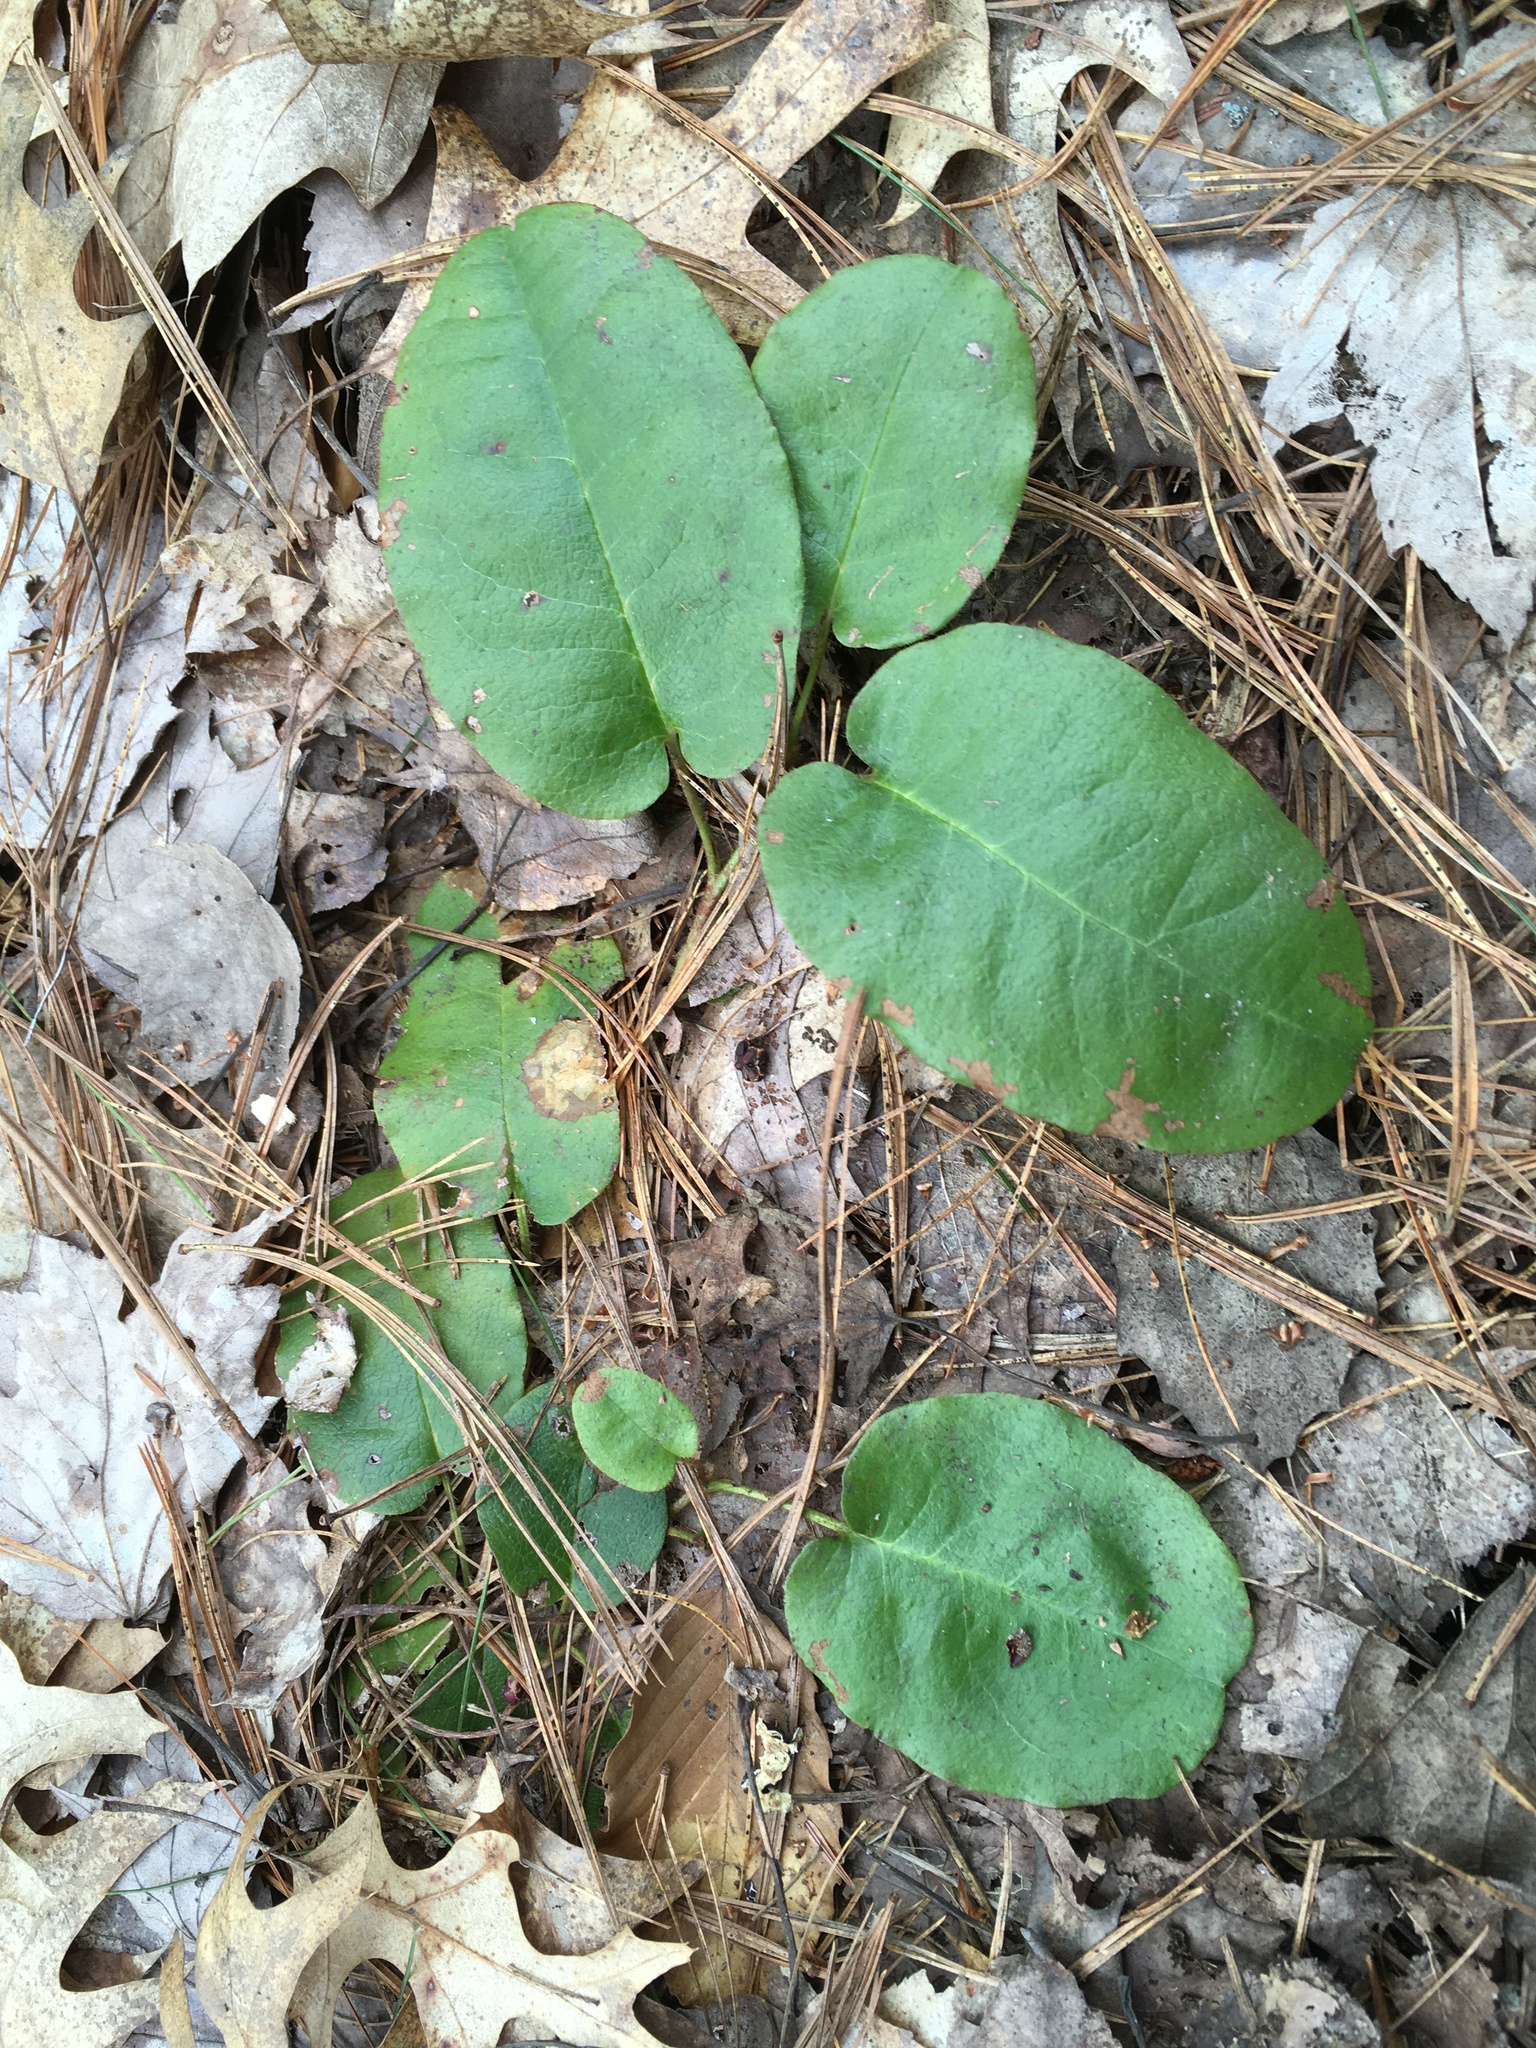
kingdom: Plantae
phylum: Tracheophyta
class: Magnoliopsida
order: Ericales
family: Ericaceae
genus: Epigaea
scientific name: Epigaea repens
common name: Gravelroot
